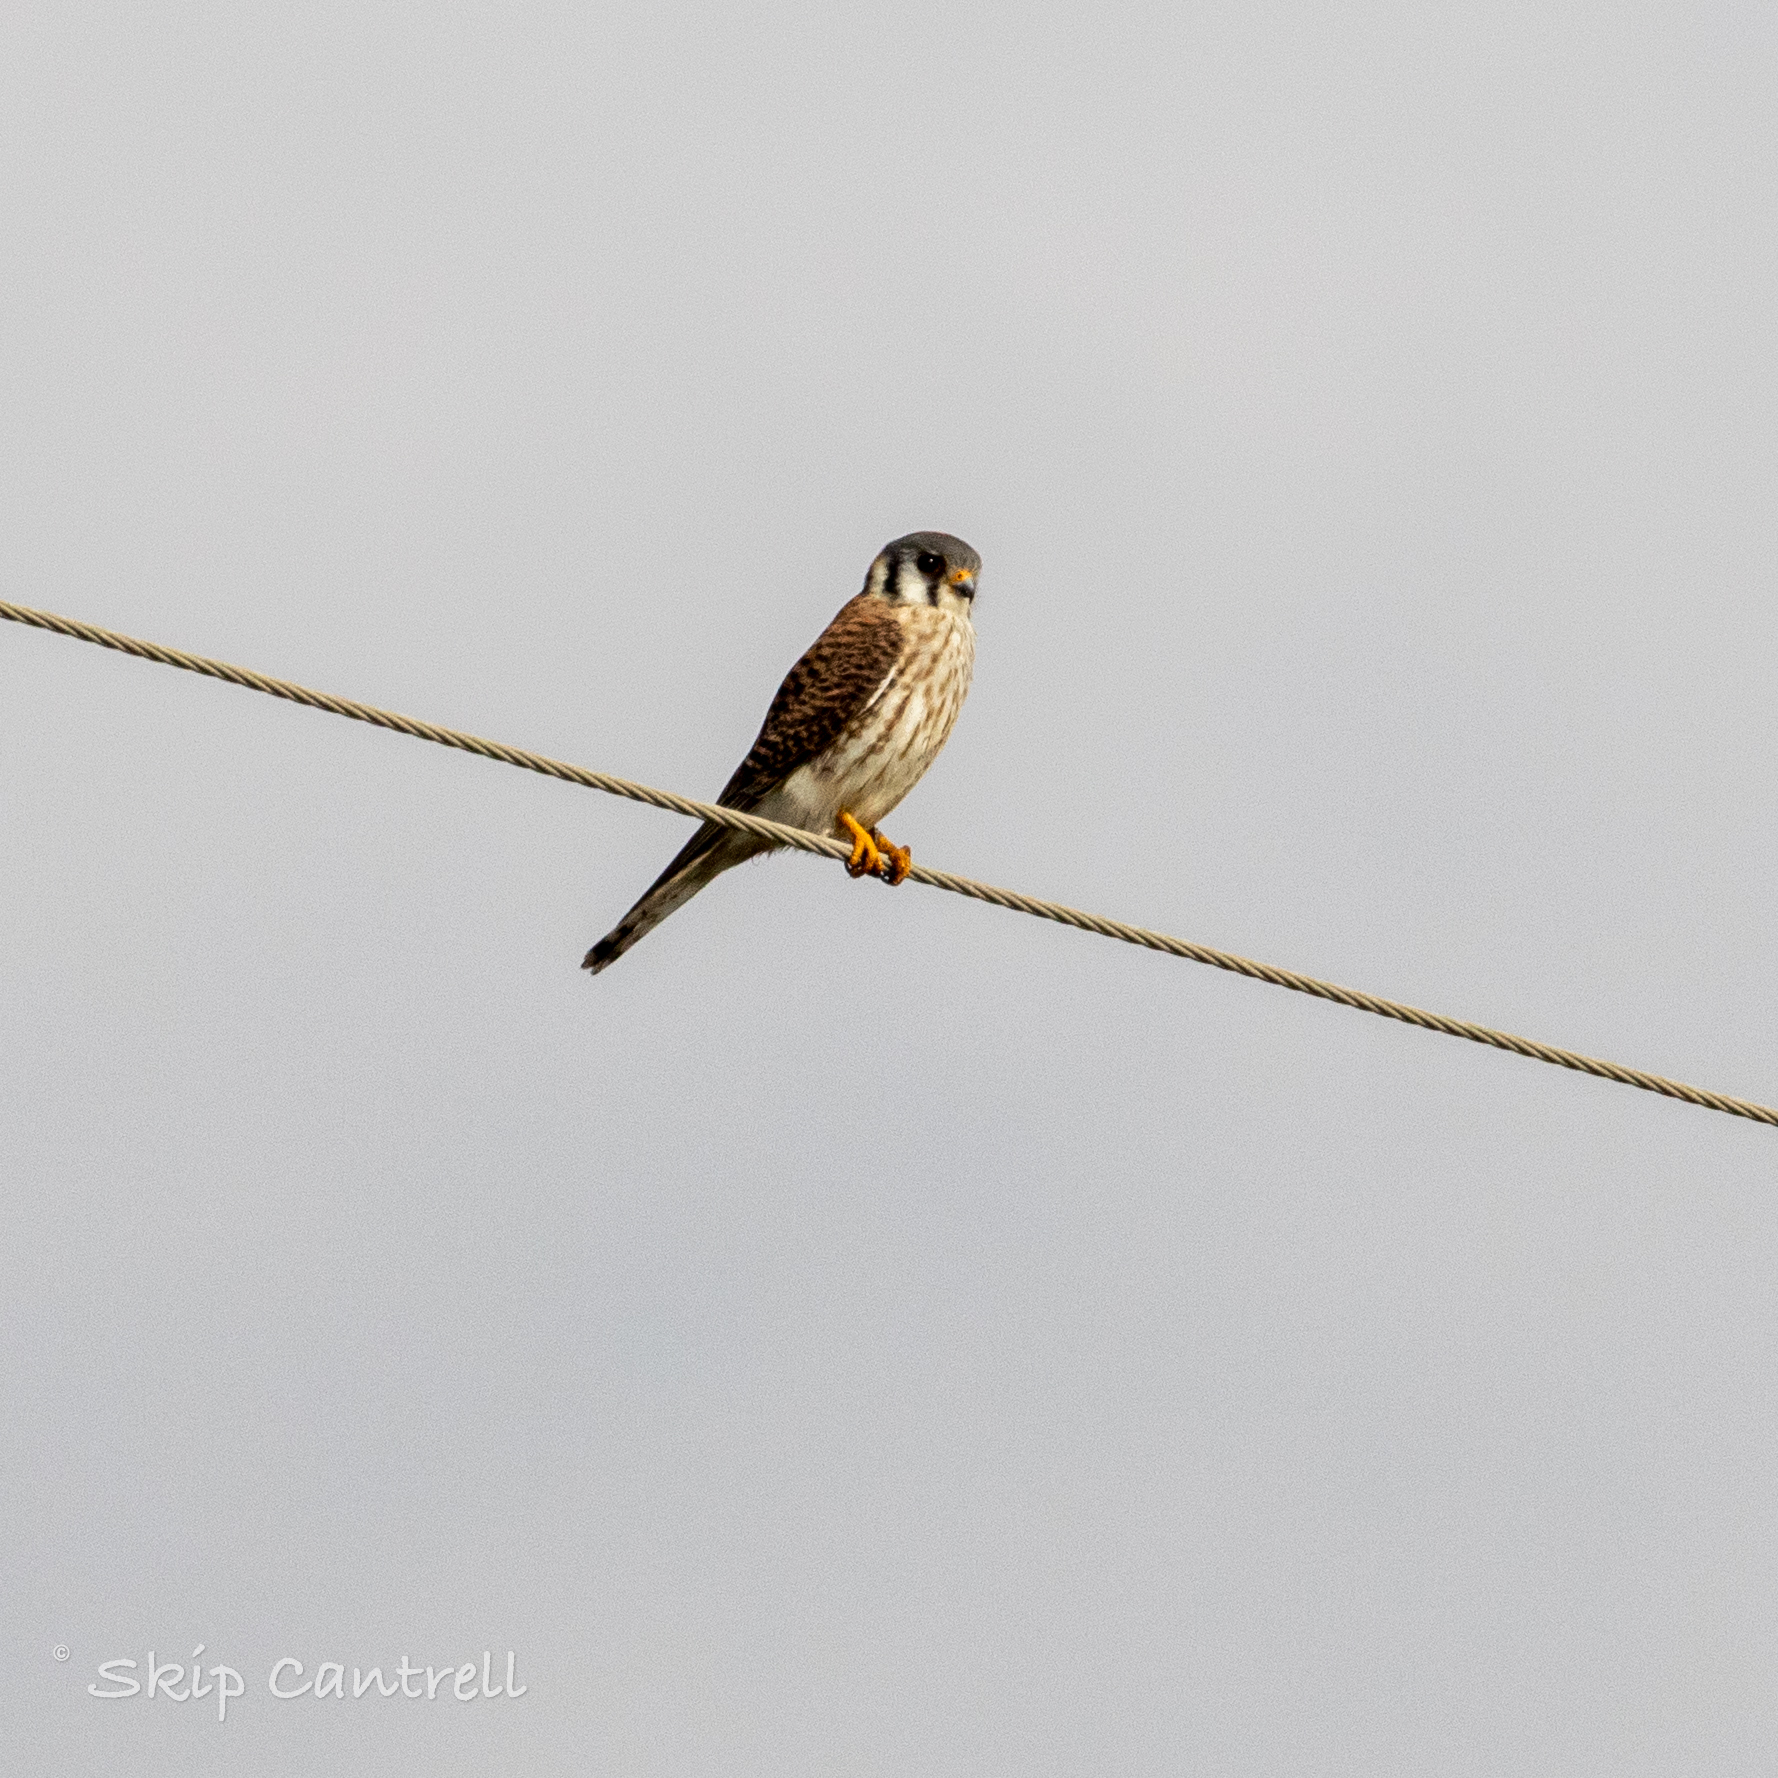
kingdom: Animalia
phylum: Chordata
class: Aves
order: Falconiformes
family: Falconidae
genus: Falco
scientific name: Falco sparverius
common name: American kestrel
